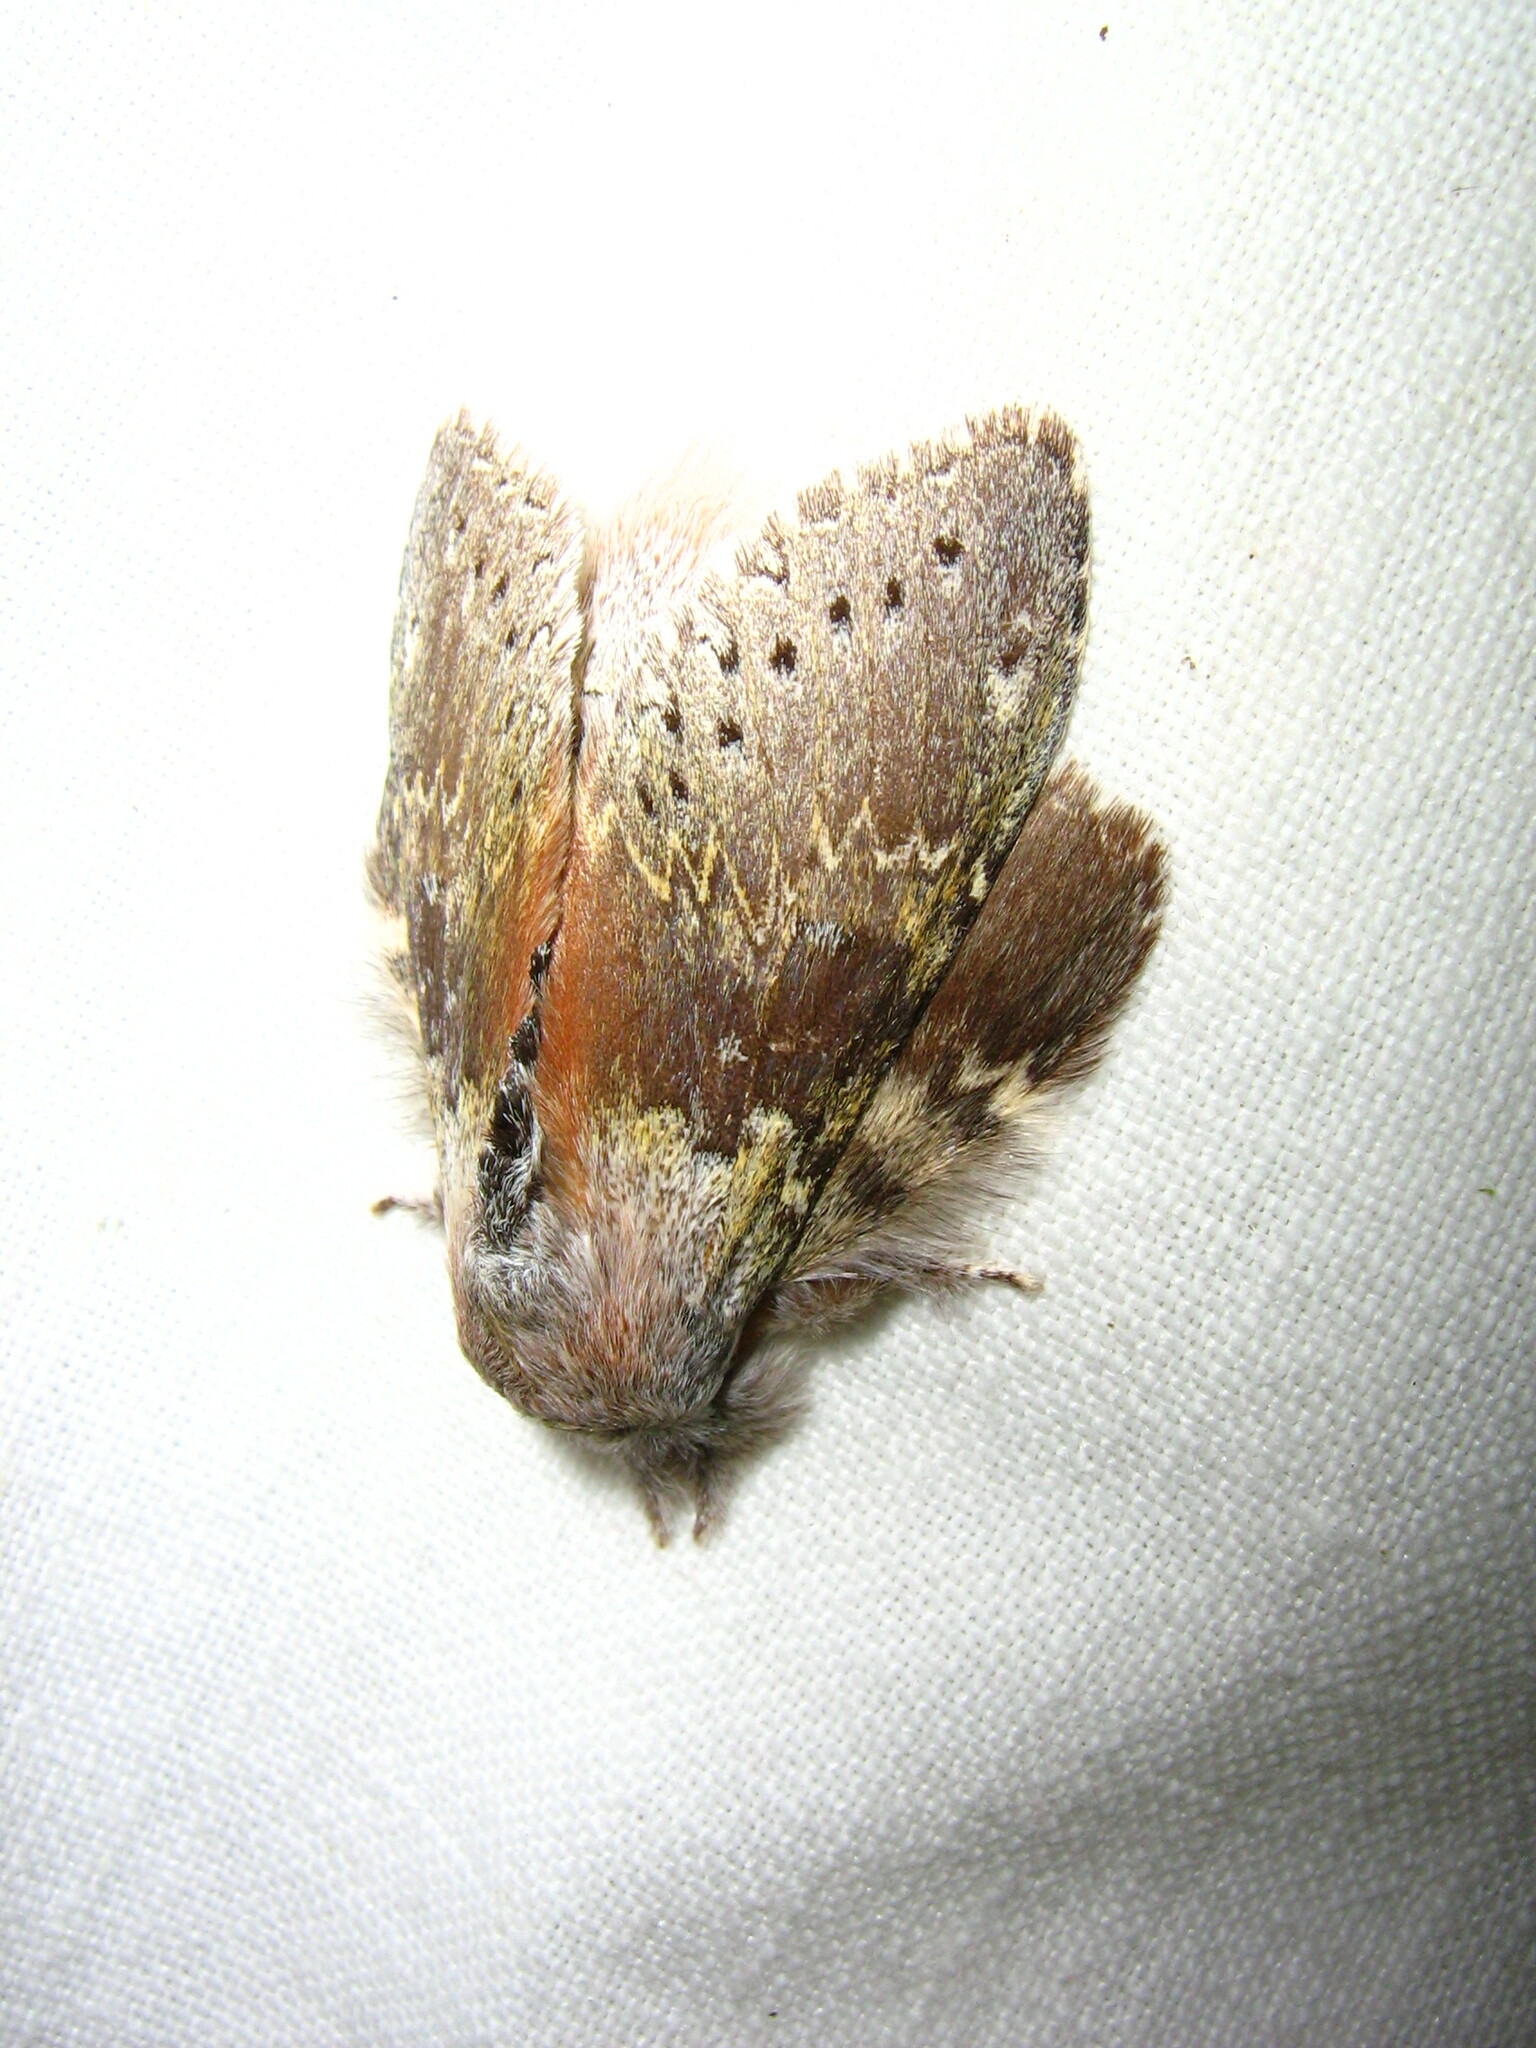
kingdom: Animalia
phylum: Arthropoda
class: Insecta
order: Lepidoptera
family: Notodontidae
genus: Stauropus
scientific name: Stauropus fagi
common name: Lobster moth
